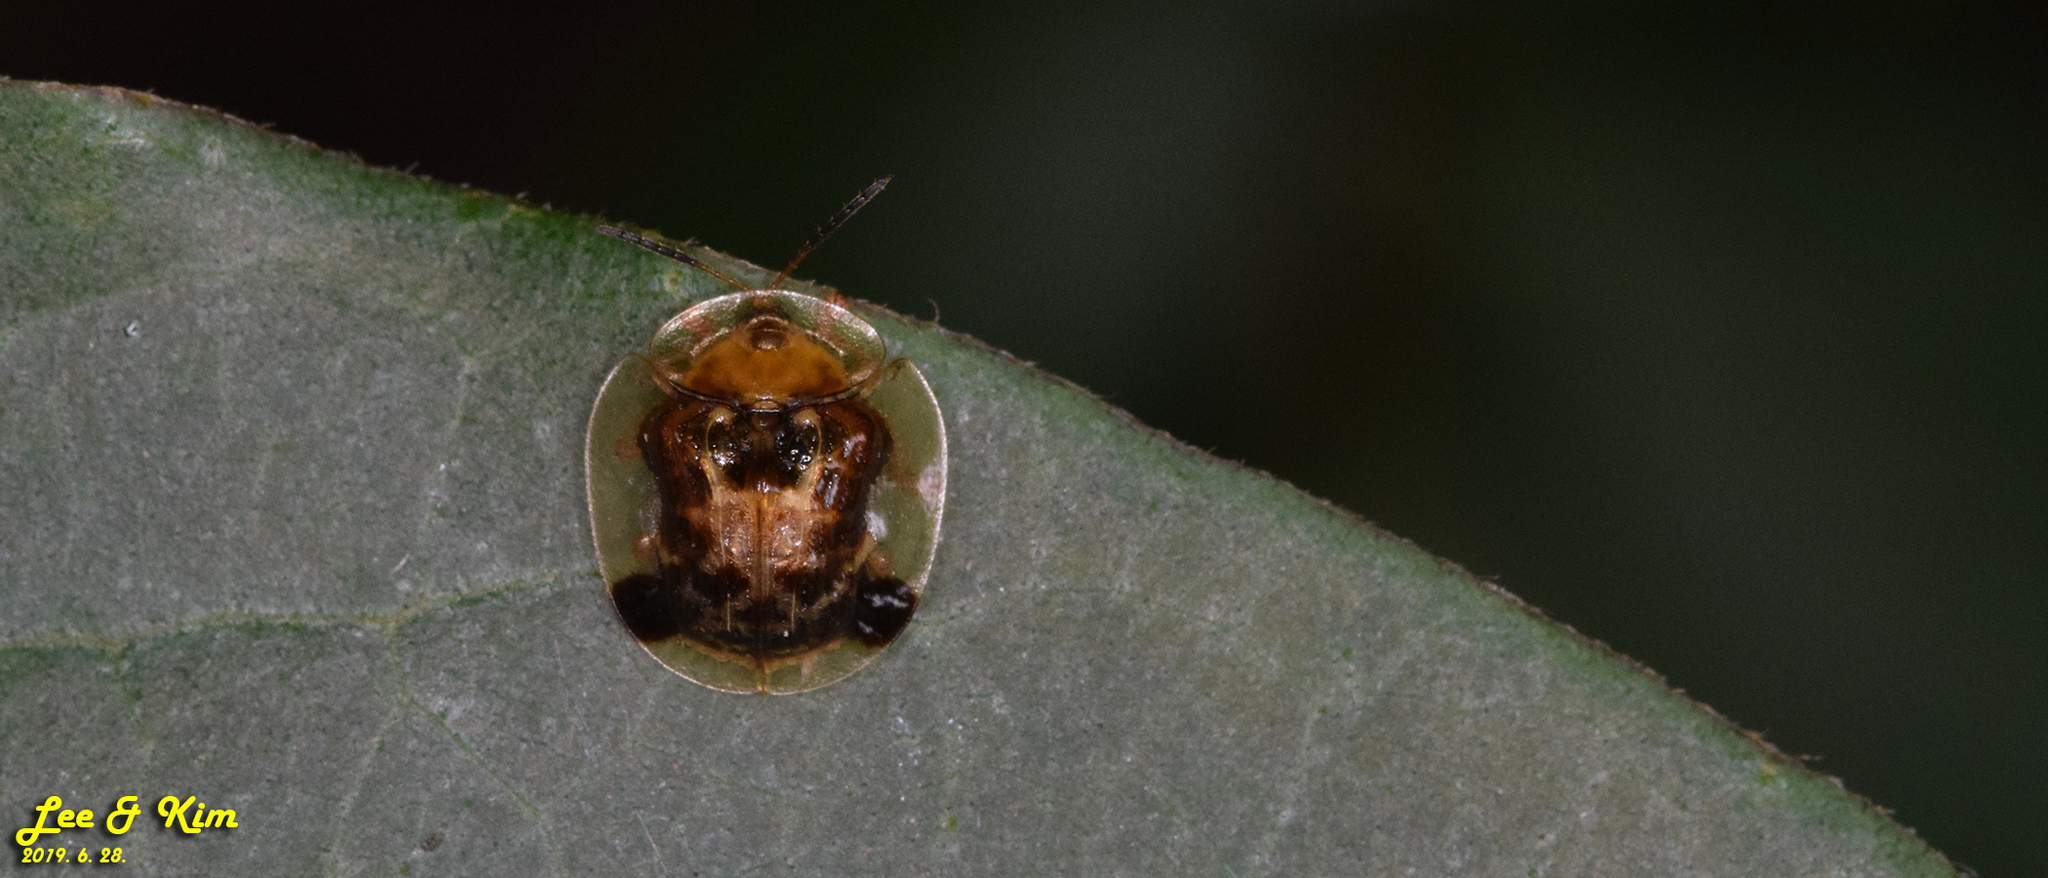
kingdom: Animalia
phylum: Arthropoda
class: Insecta
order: Coleoptera
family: Chrysomelidae
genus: Thlaspida
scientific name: Thlaspida biramosa
